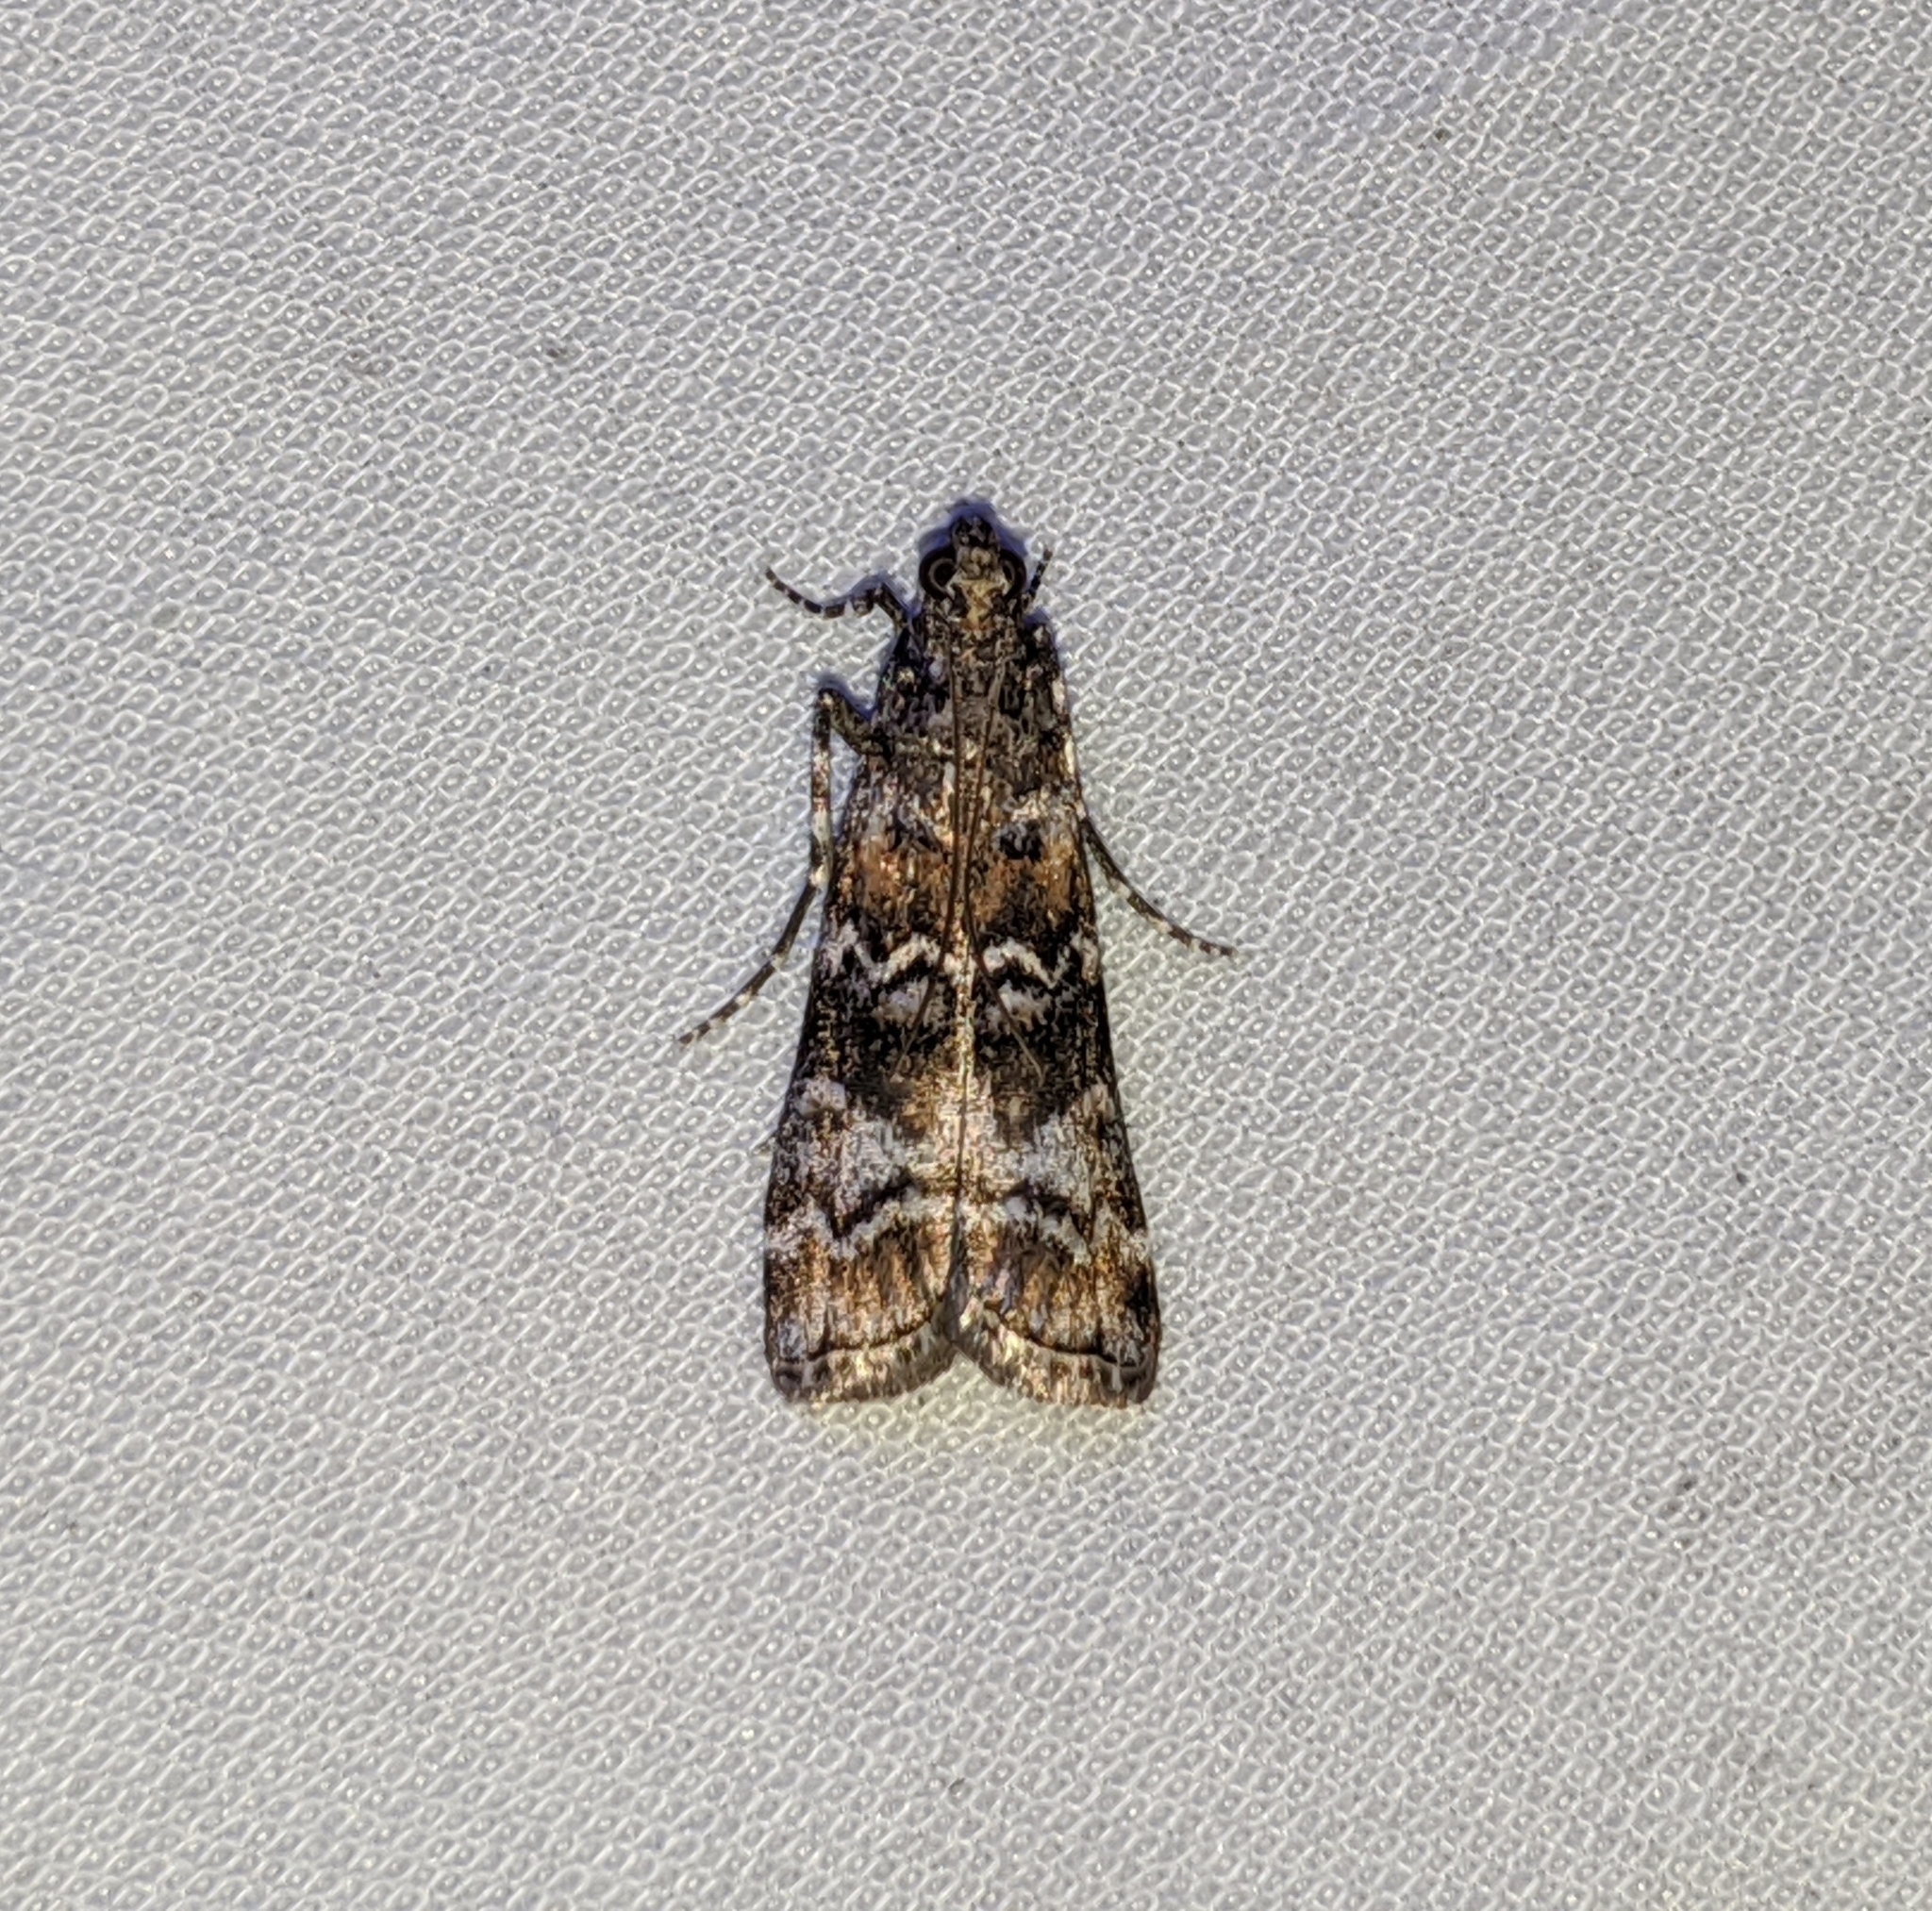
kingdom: Animalia
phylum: Arthropoda
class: Insecta
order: Lepidoptera
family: Pyralidae
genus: Dioryctria
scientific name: Dioryctria banksiella
